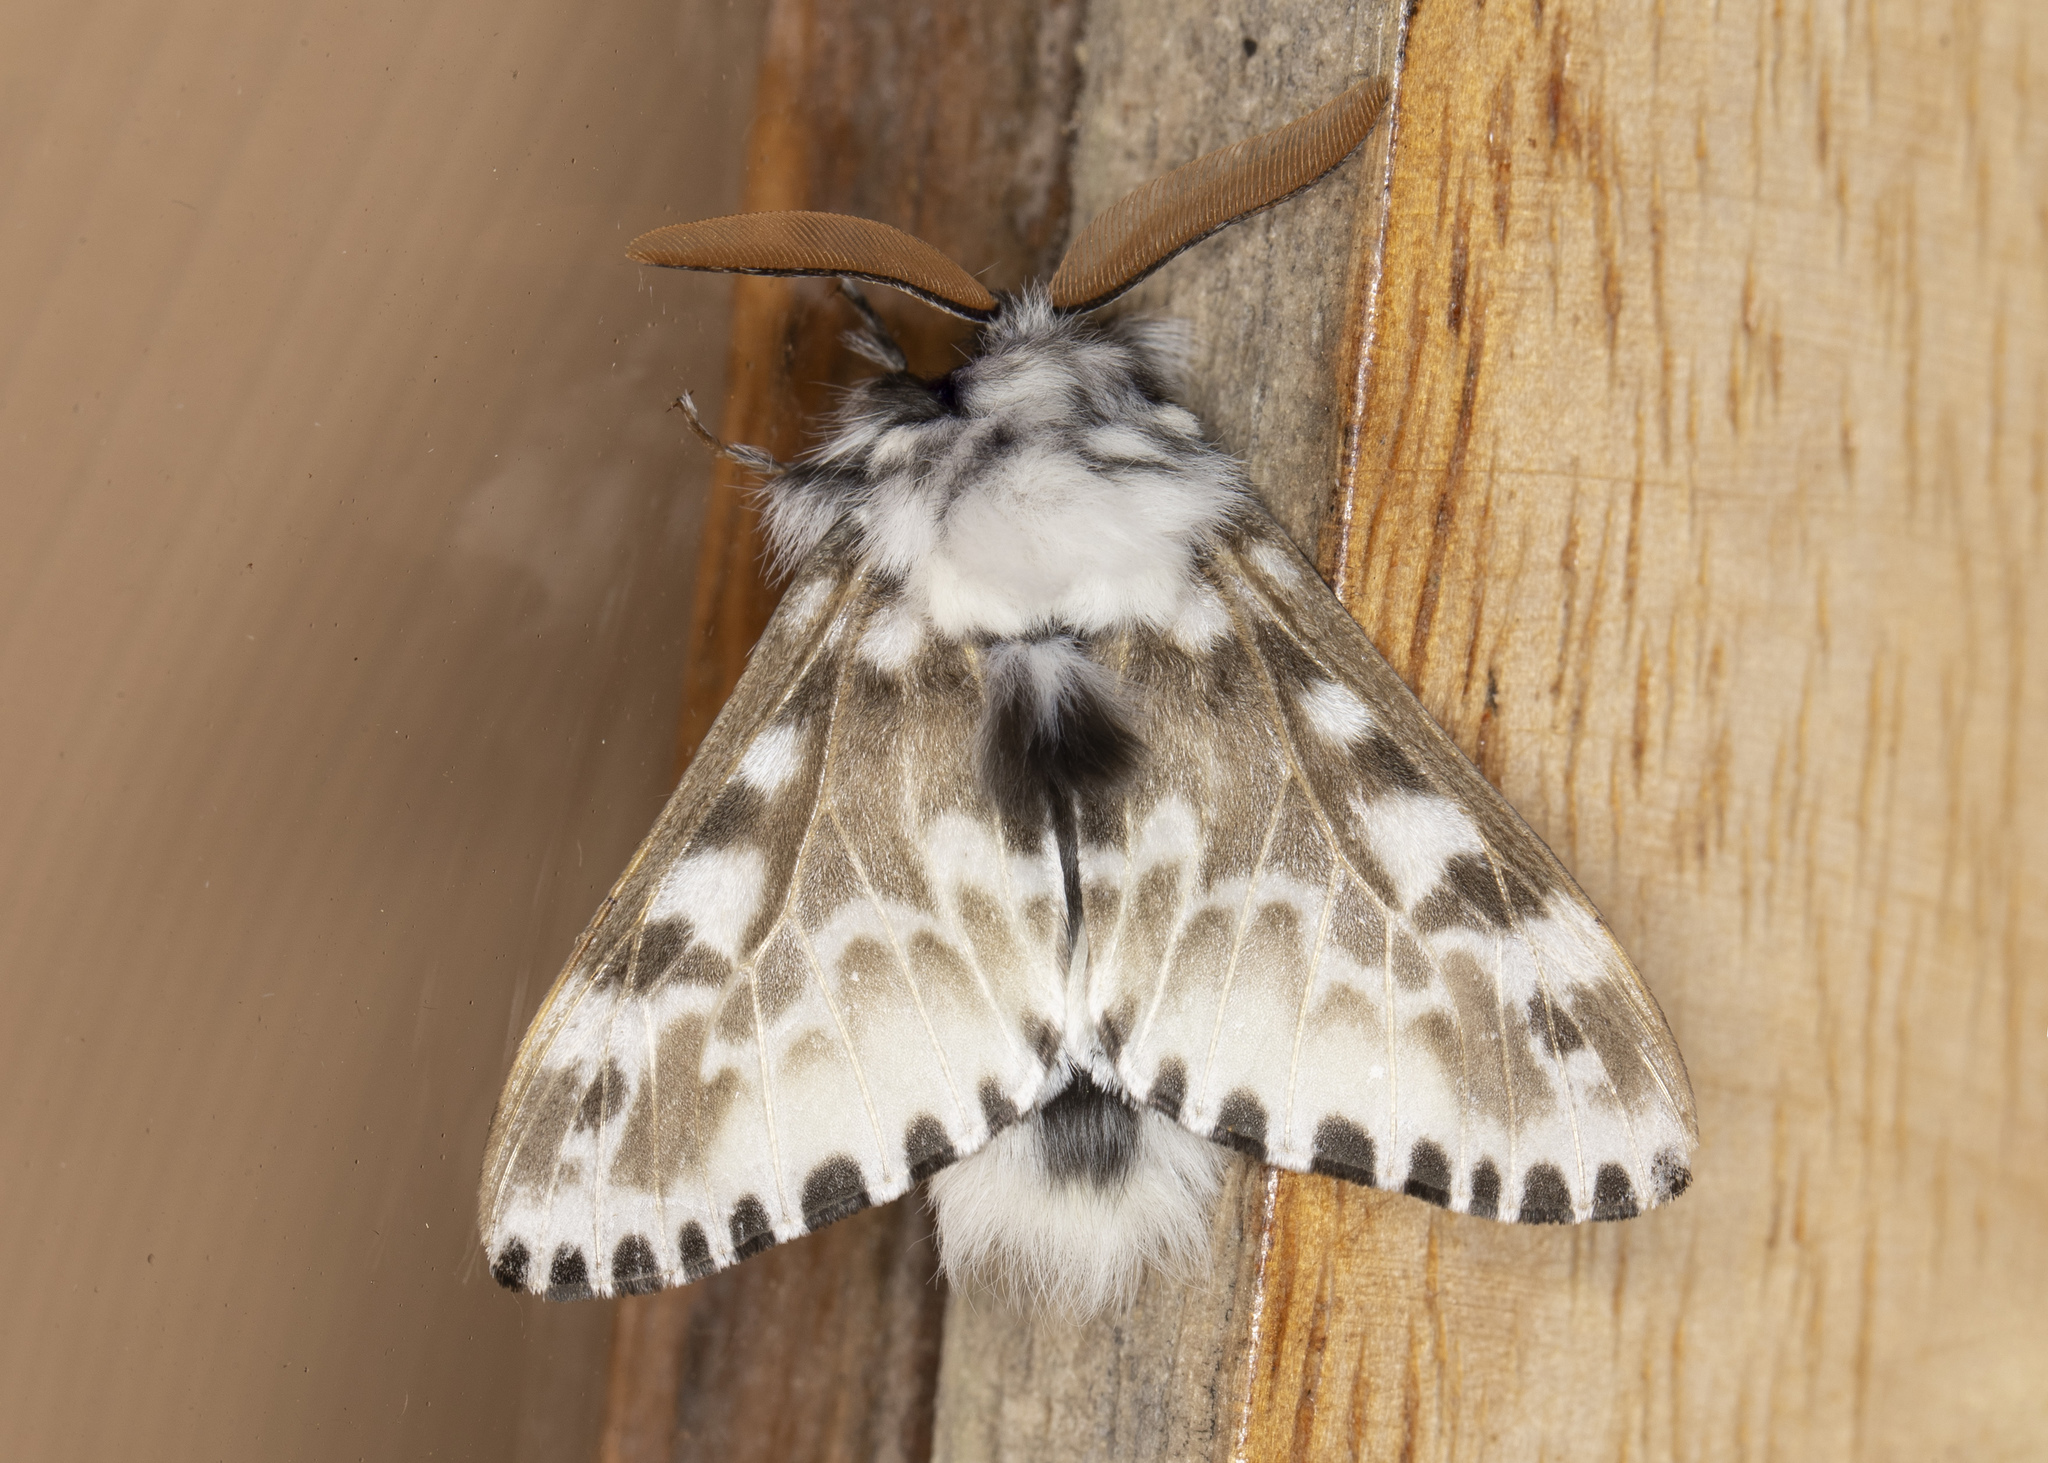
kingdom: Animalia
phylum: Arthropoda
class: Insecta
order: Lepidoptera
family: Megalopygidae
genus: Podalia
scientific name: Podalia pedacia
